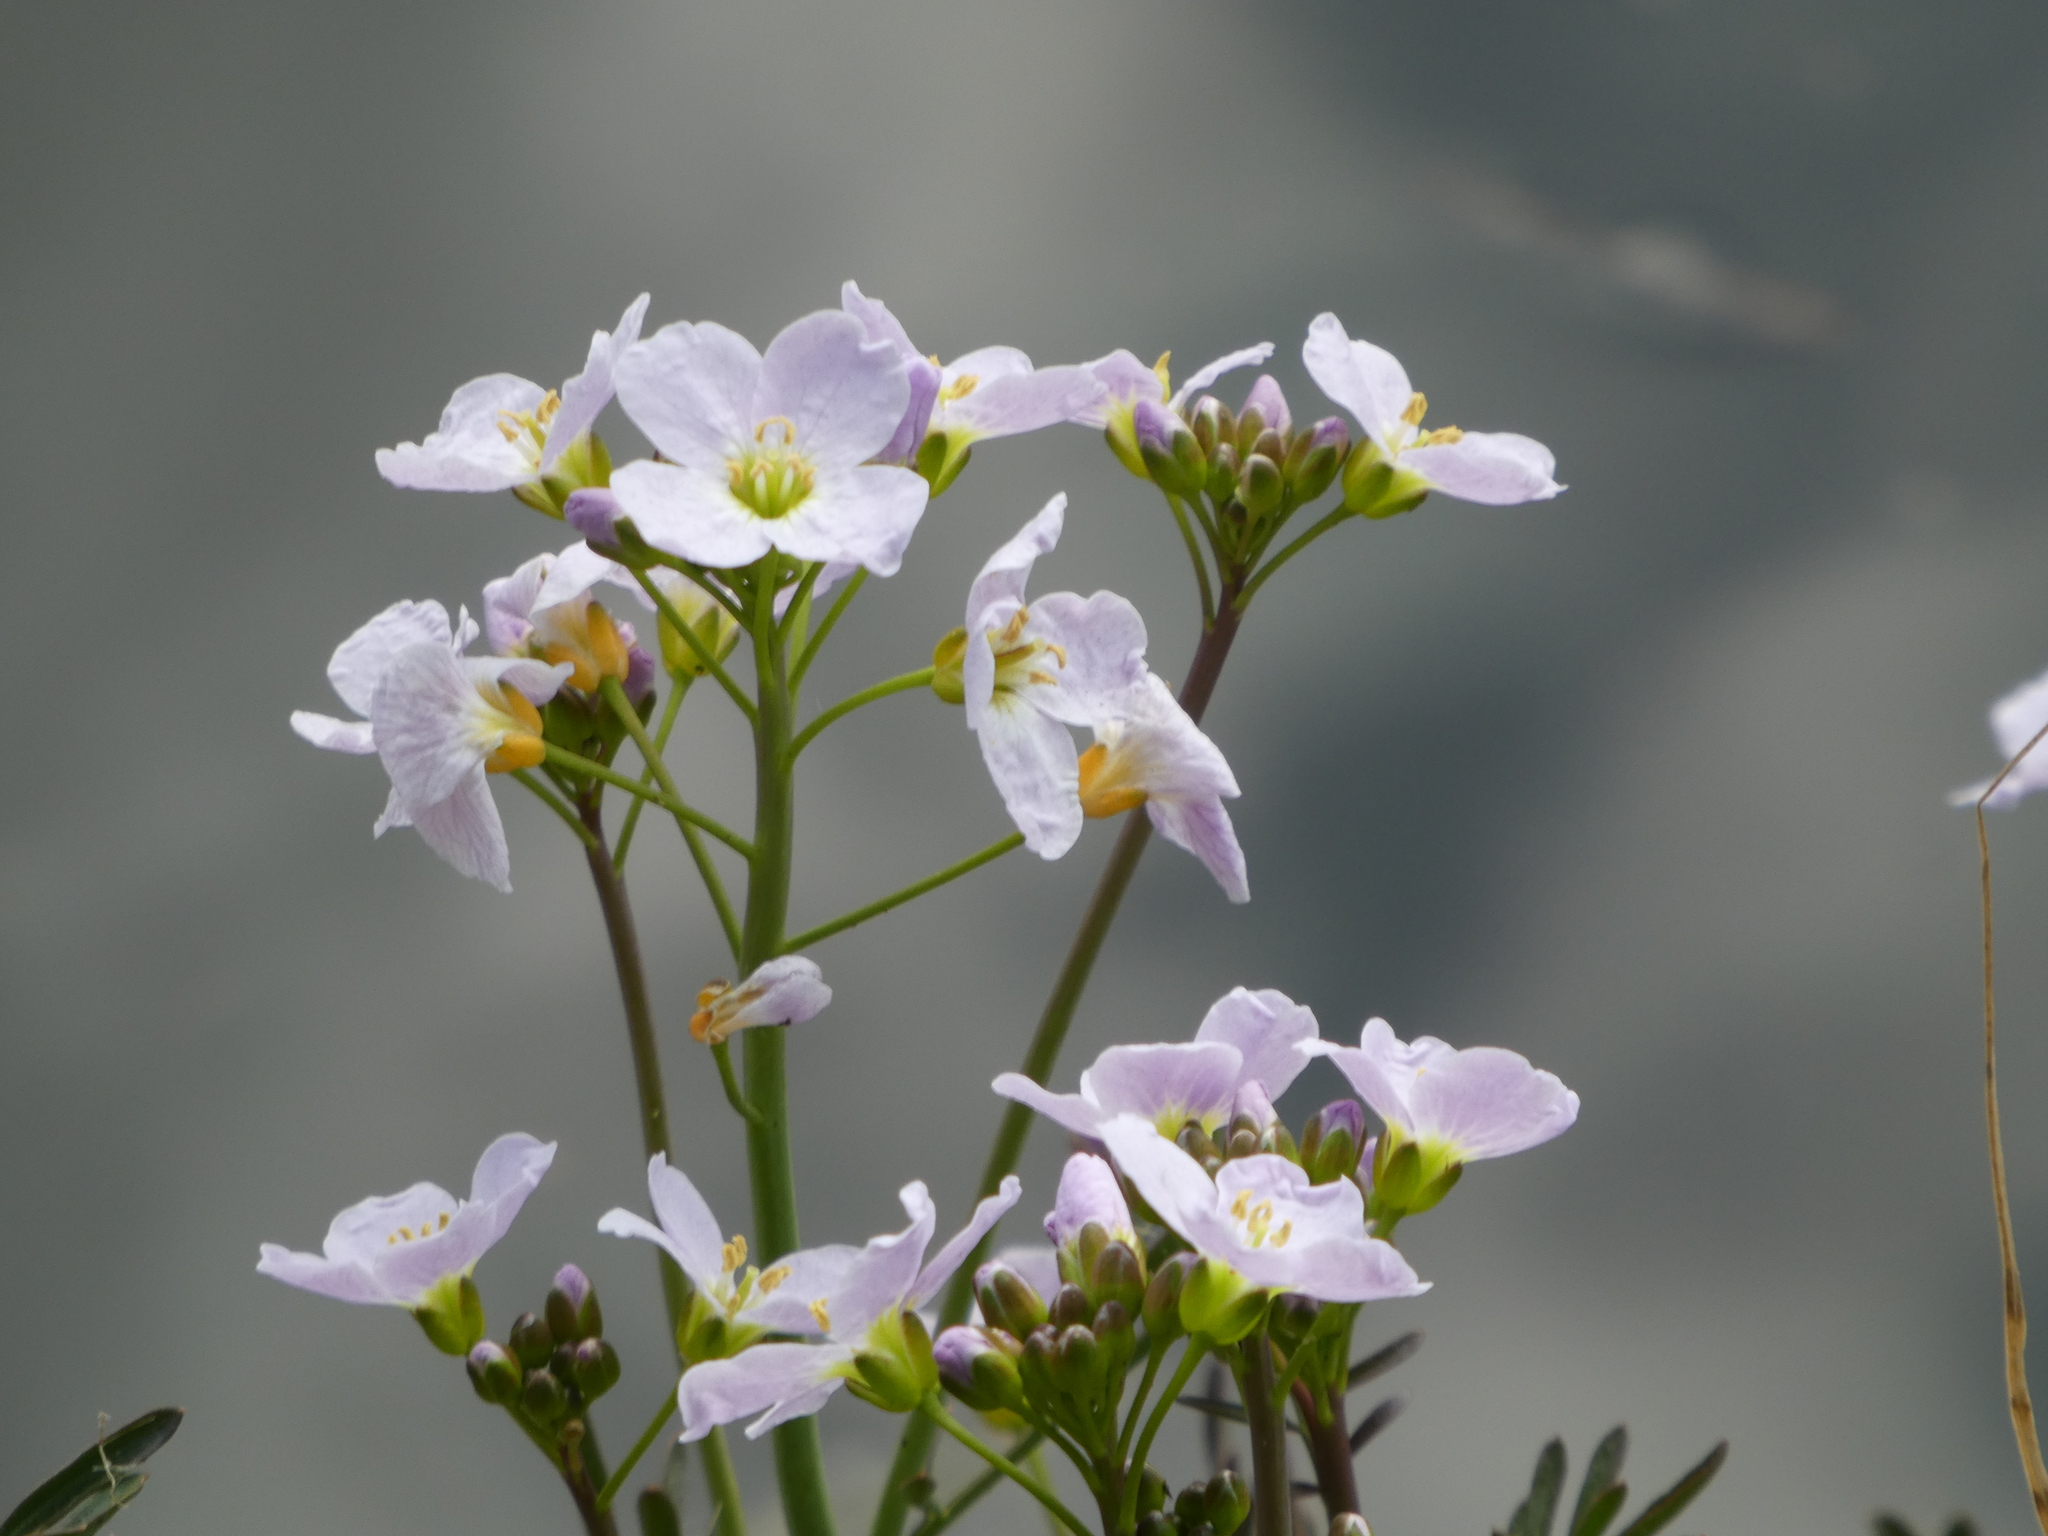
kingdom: Plantae
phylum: Tracheophyta
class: Magnoliopsida
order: Brassicales
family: Brassicaceae
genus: Cardamine
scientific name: Cardamine pratensis
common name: Cuckoo flower
